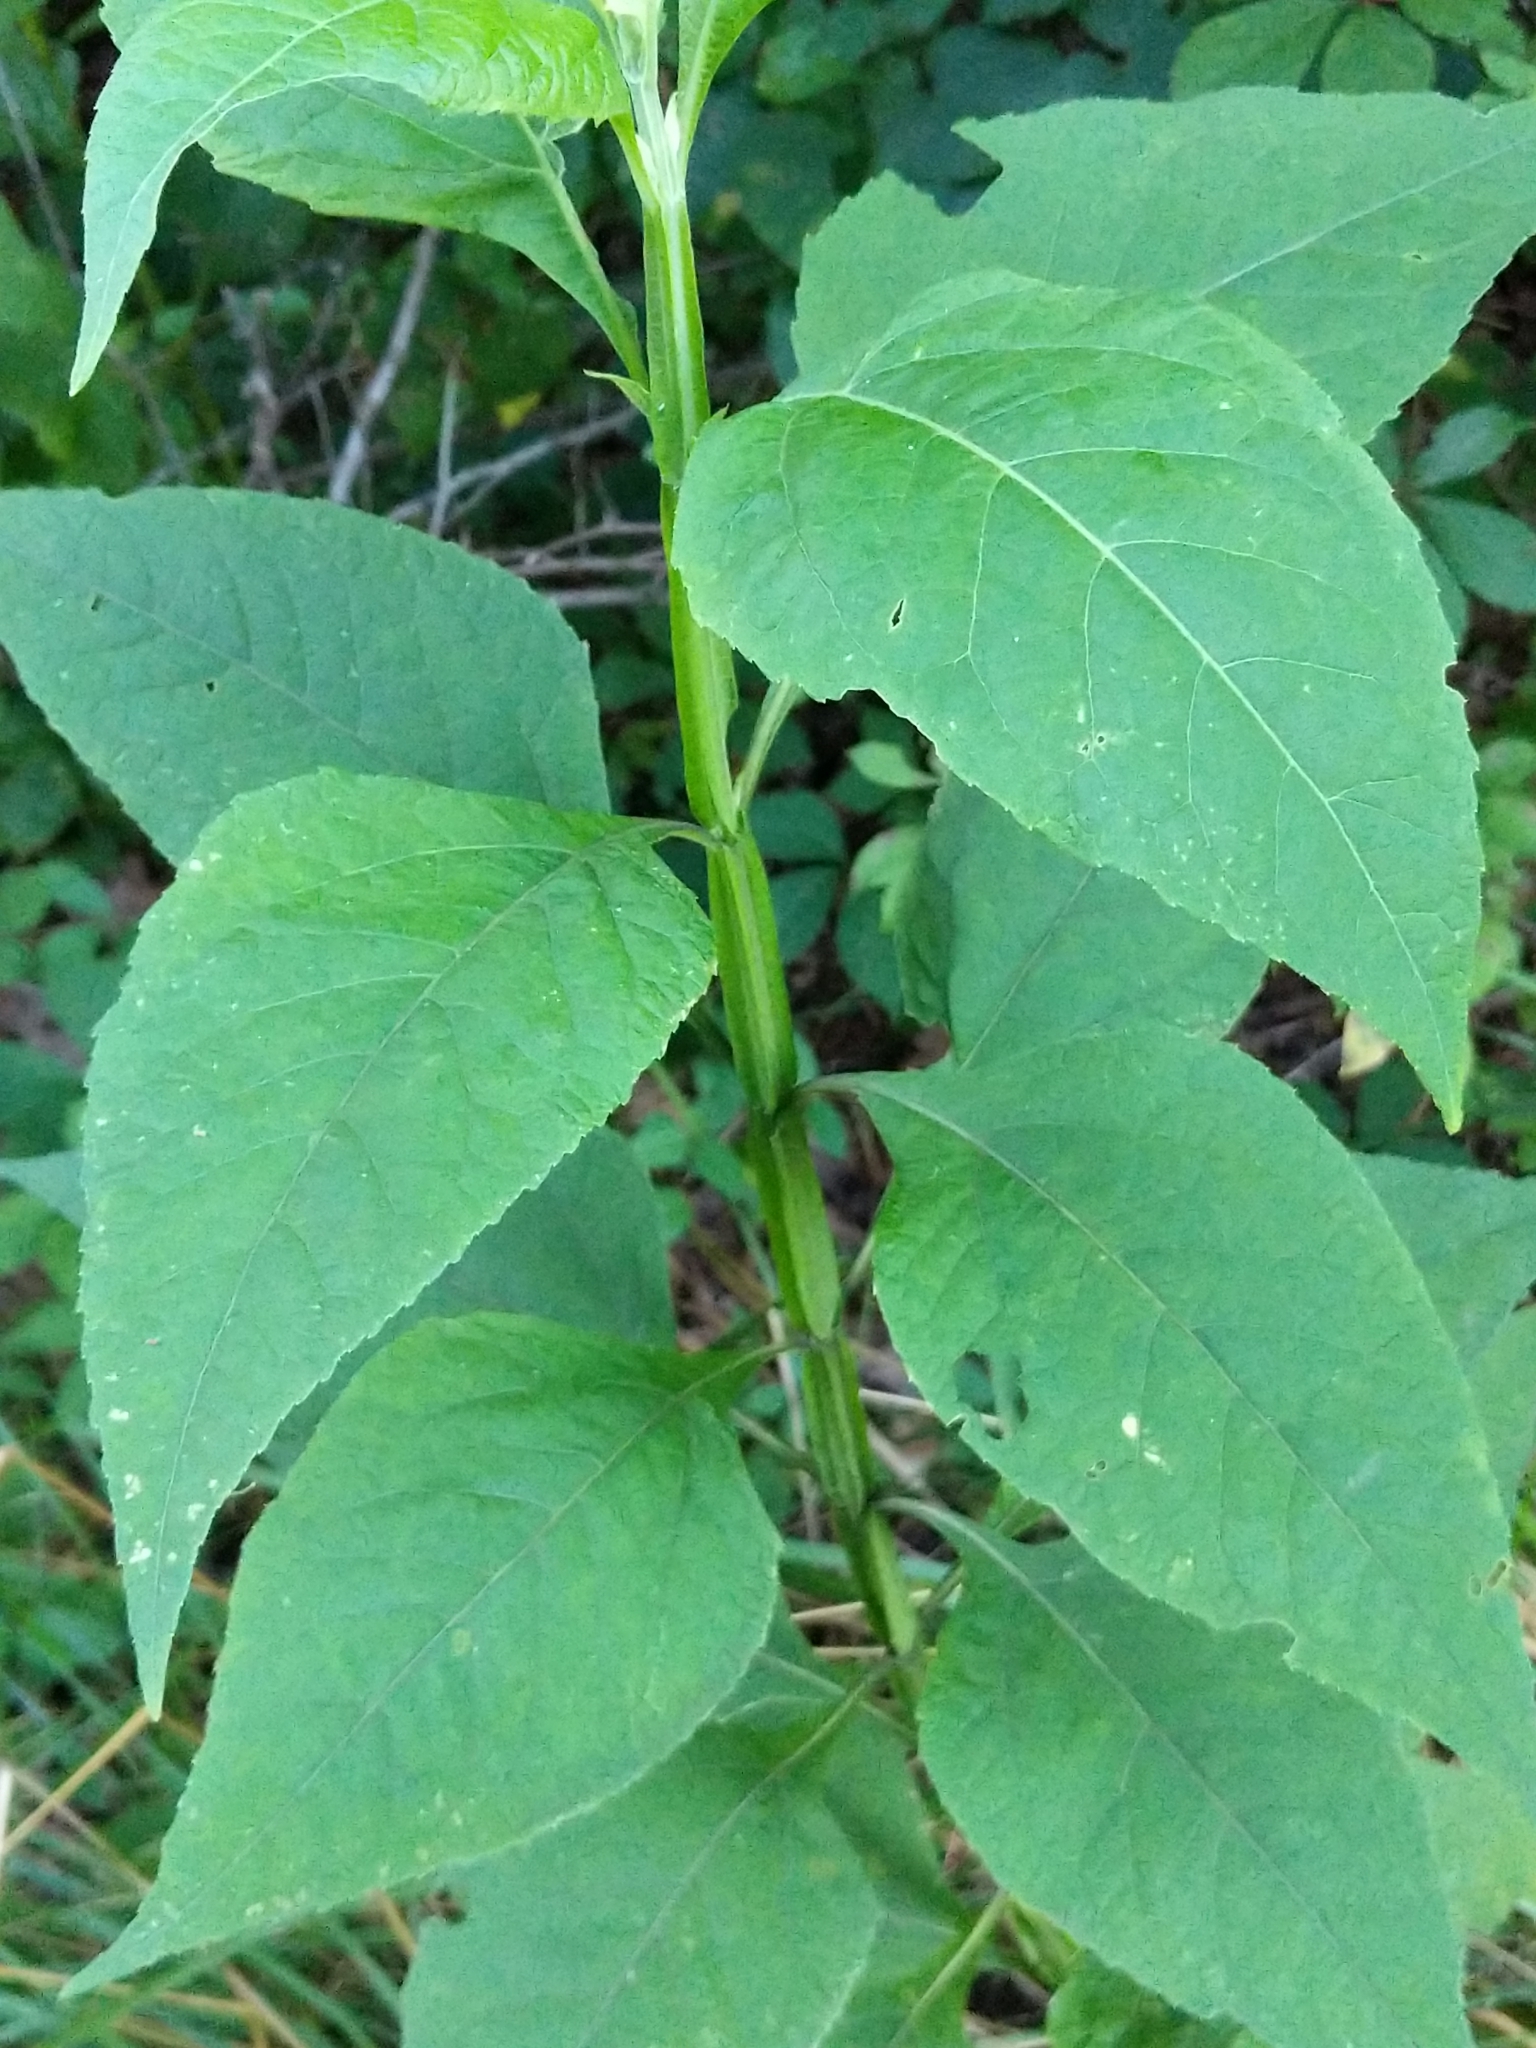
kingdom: Plantae
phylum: Tracheophyta
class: Magnoliopsida
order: Asterales
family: Asteraceae
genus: Verbesina
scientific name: Verbesina occidentalis
